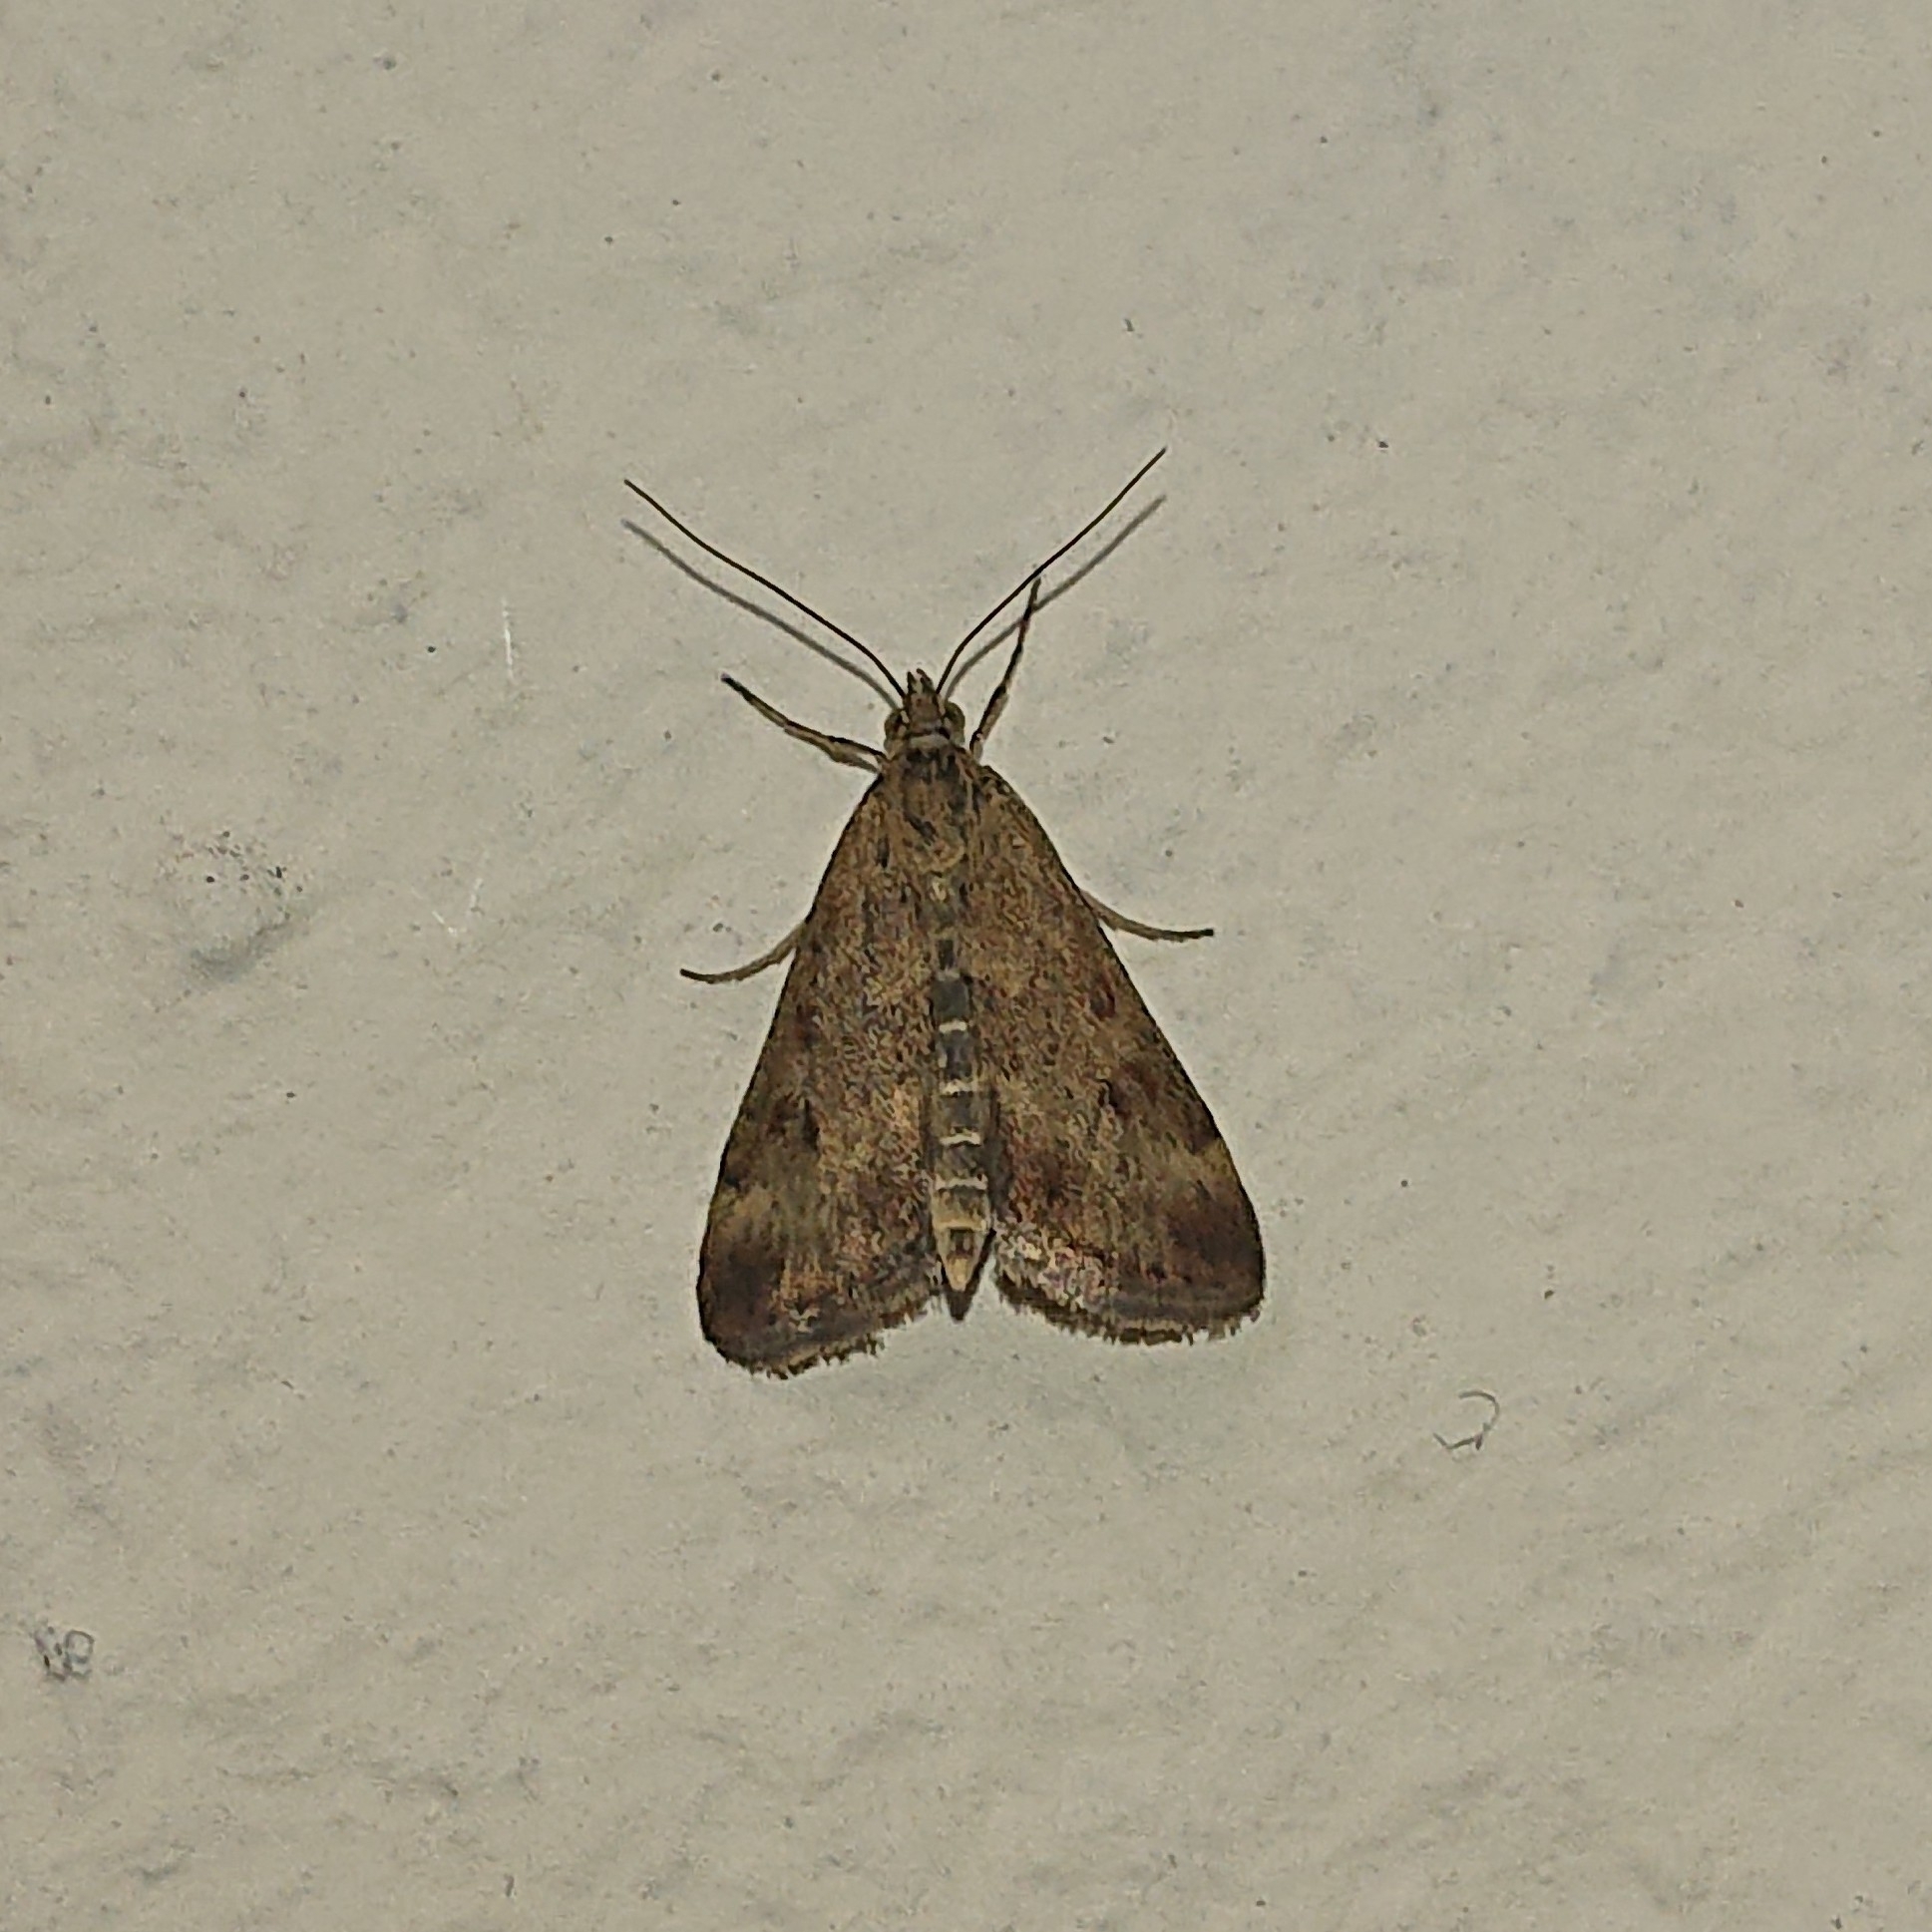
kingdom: Animalia
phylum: Arthropoda
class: Insecta
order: Lepidoptera
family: Crambidae
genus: Pyrausta
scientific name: Pyrausta despicata
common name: Straw-barred pearl
